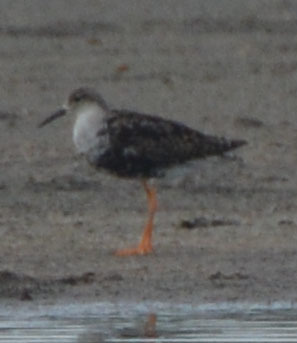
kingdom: Animalia
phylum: Chordata
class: Aves
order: Charadriiformes
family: Scolopacidae
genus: Calidris
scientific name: Calidris pugnax
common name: Ruff
